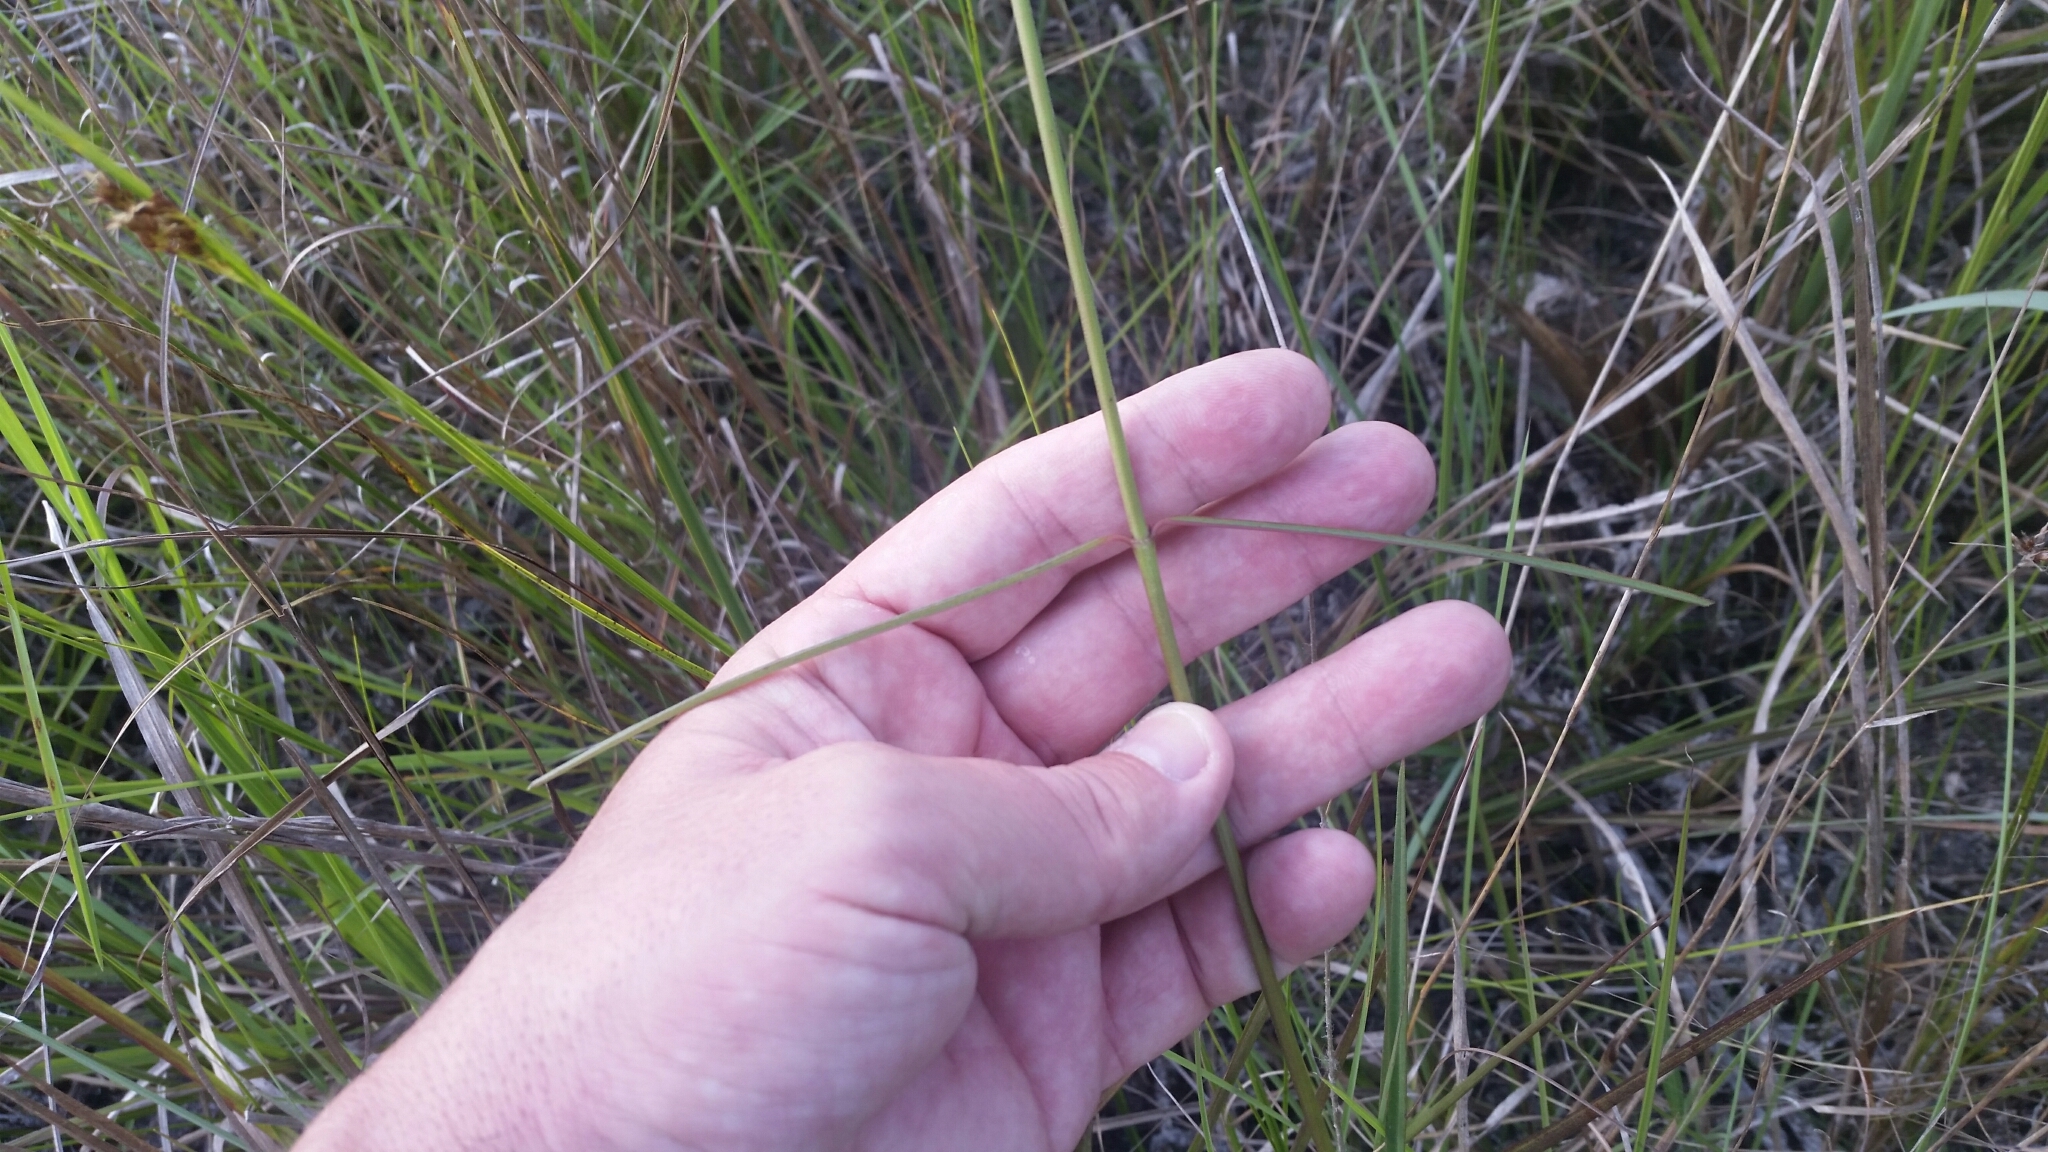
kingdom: Plantae
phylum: Tracheophyta
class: Magnoliopsida
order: Gentianales
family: Apocynaceae
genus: Asclepias
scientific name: Asclepias lanceolata
